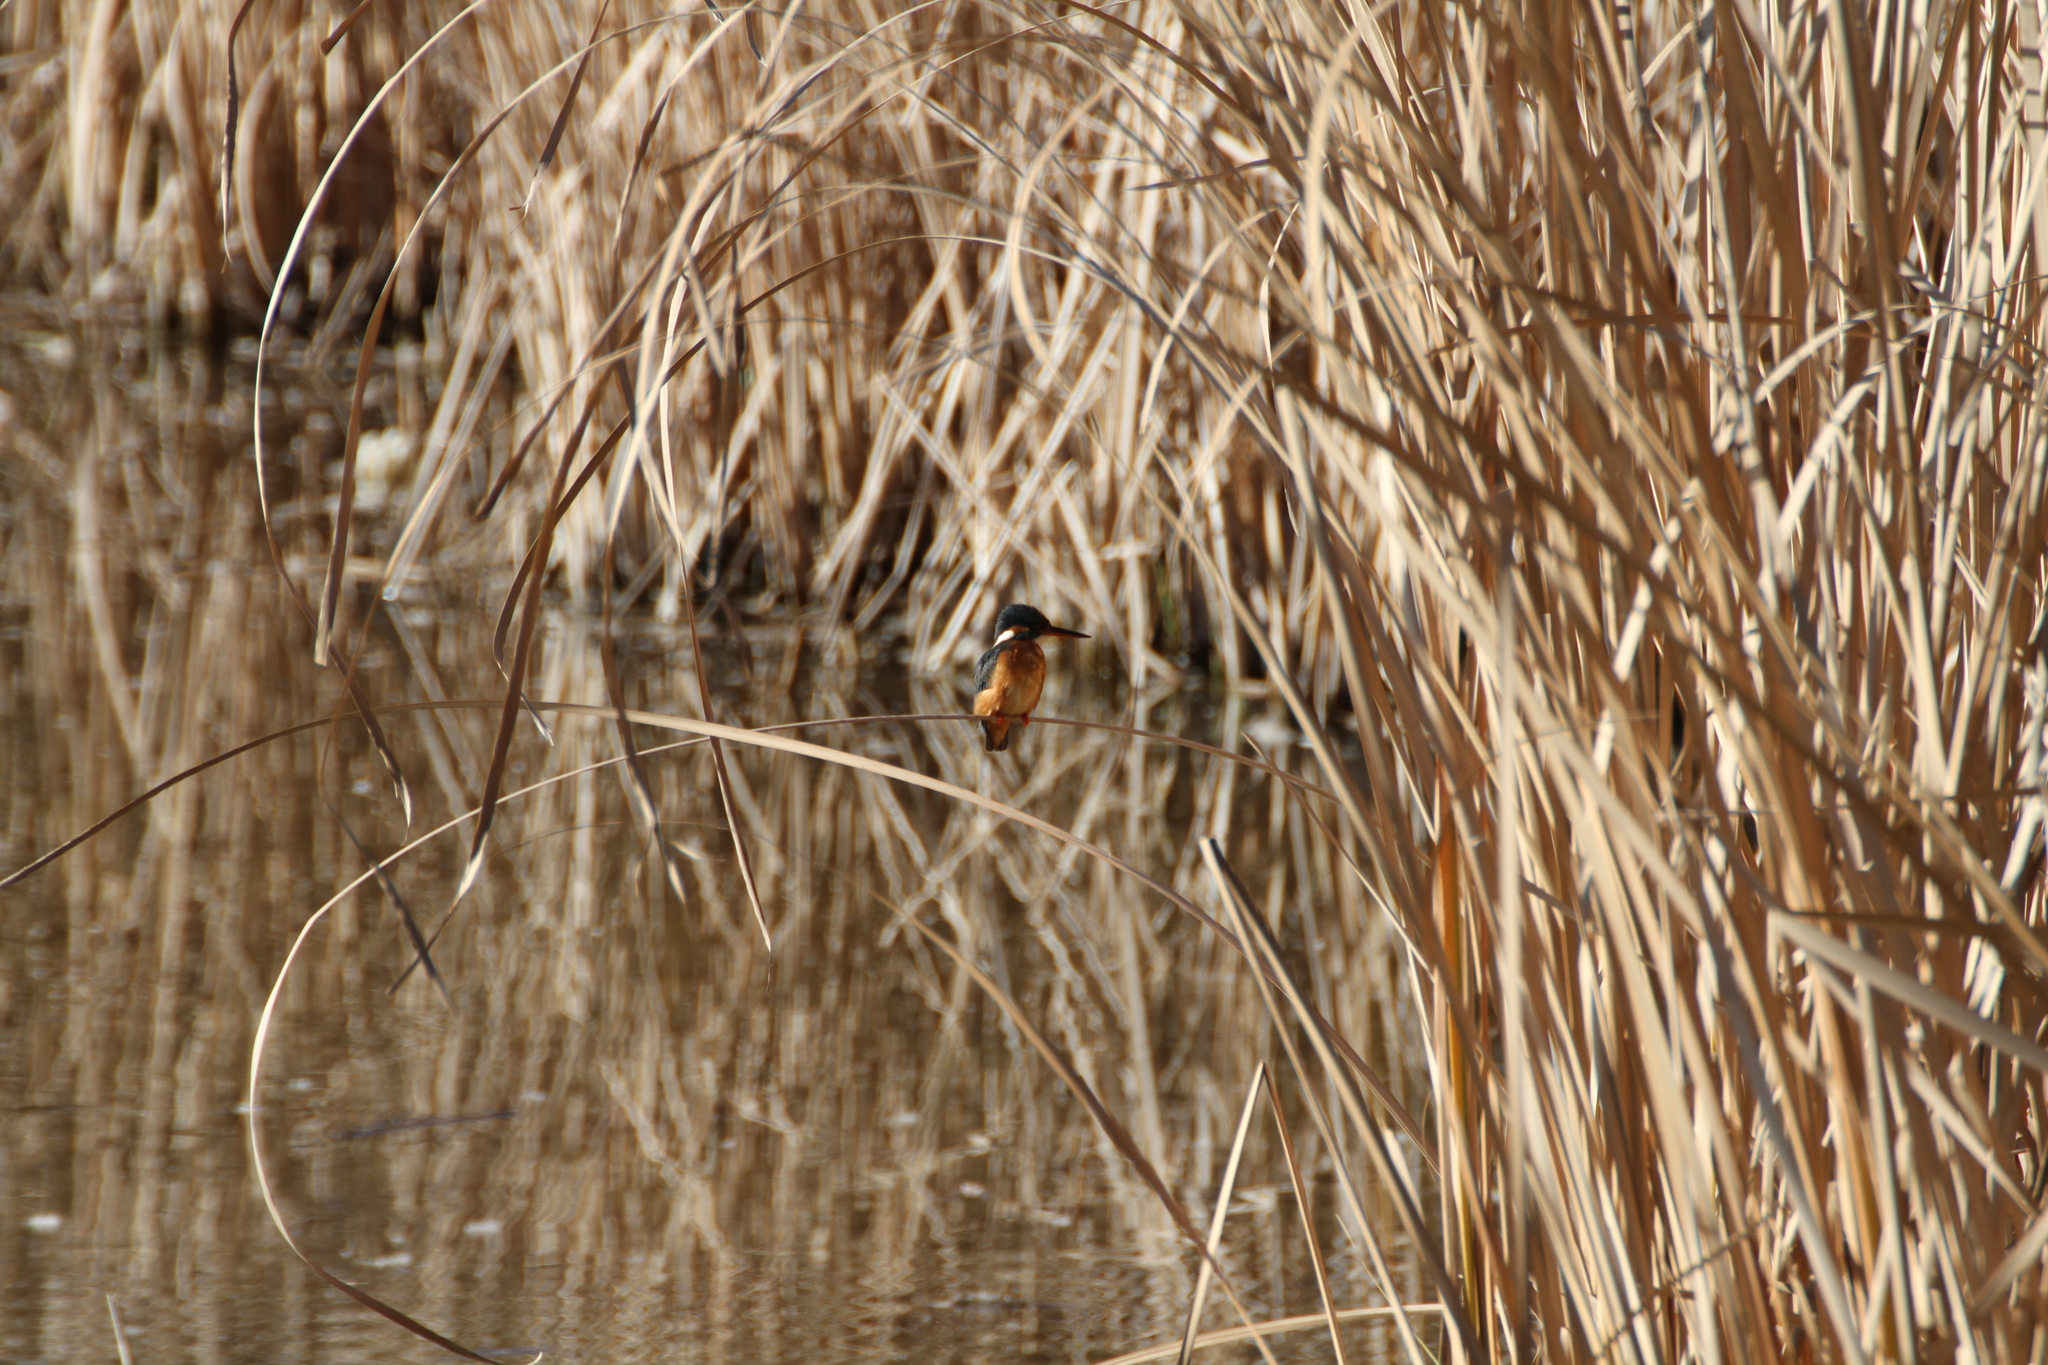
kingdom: Animalia
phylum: Chordata
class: Aves
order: Coraciiformes
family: Alcedinidae
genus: Alcedo
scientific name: Alcedo atthis
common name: Common kingfisher
